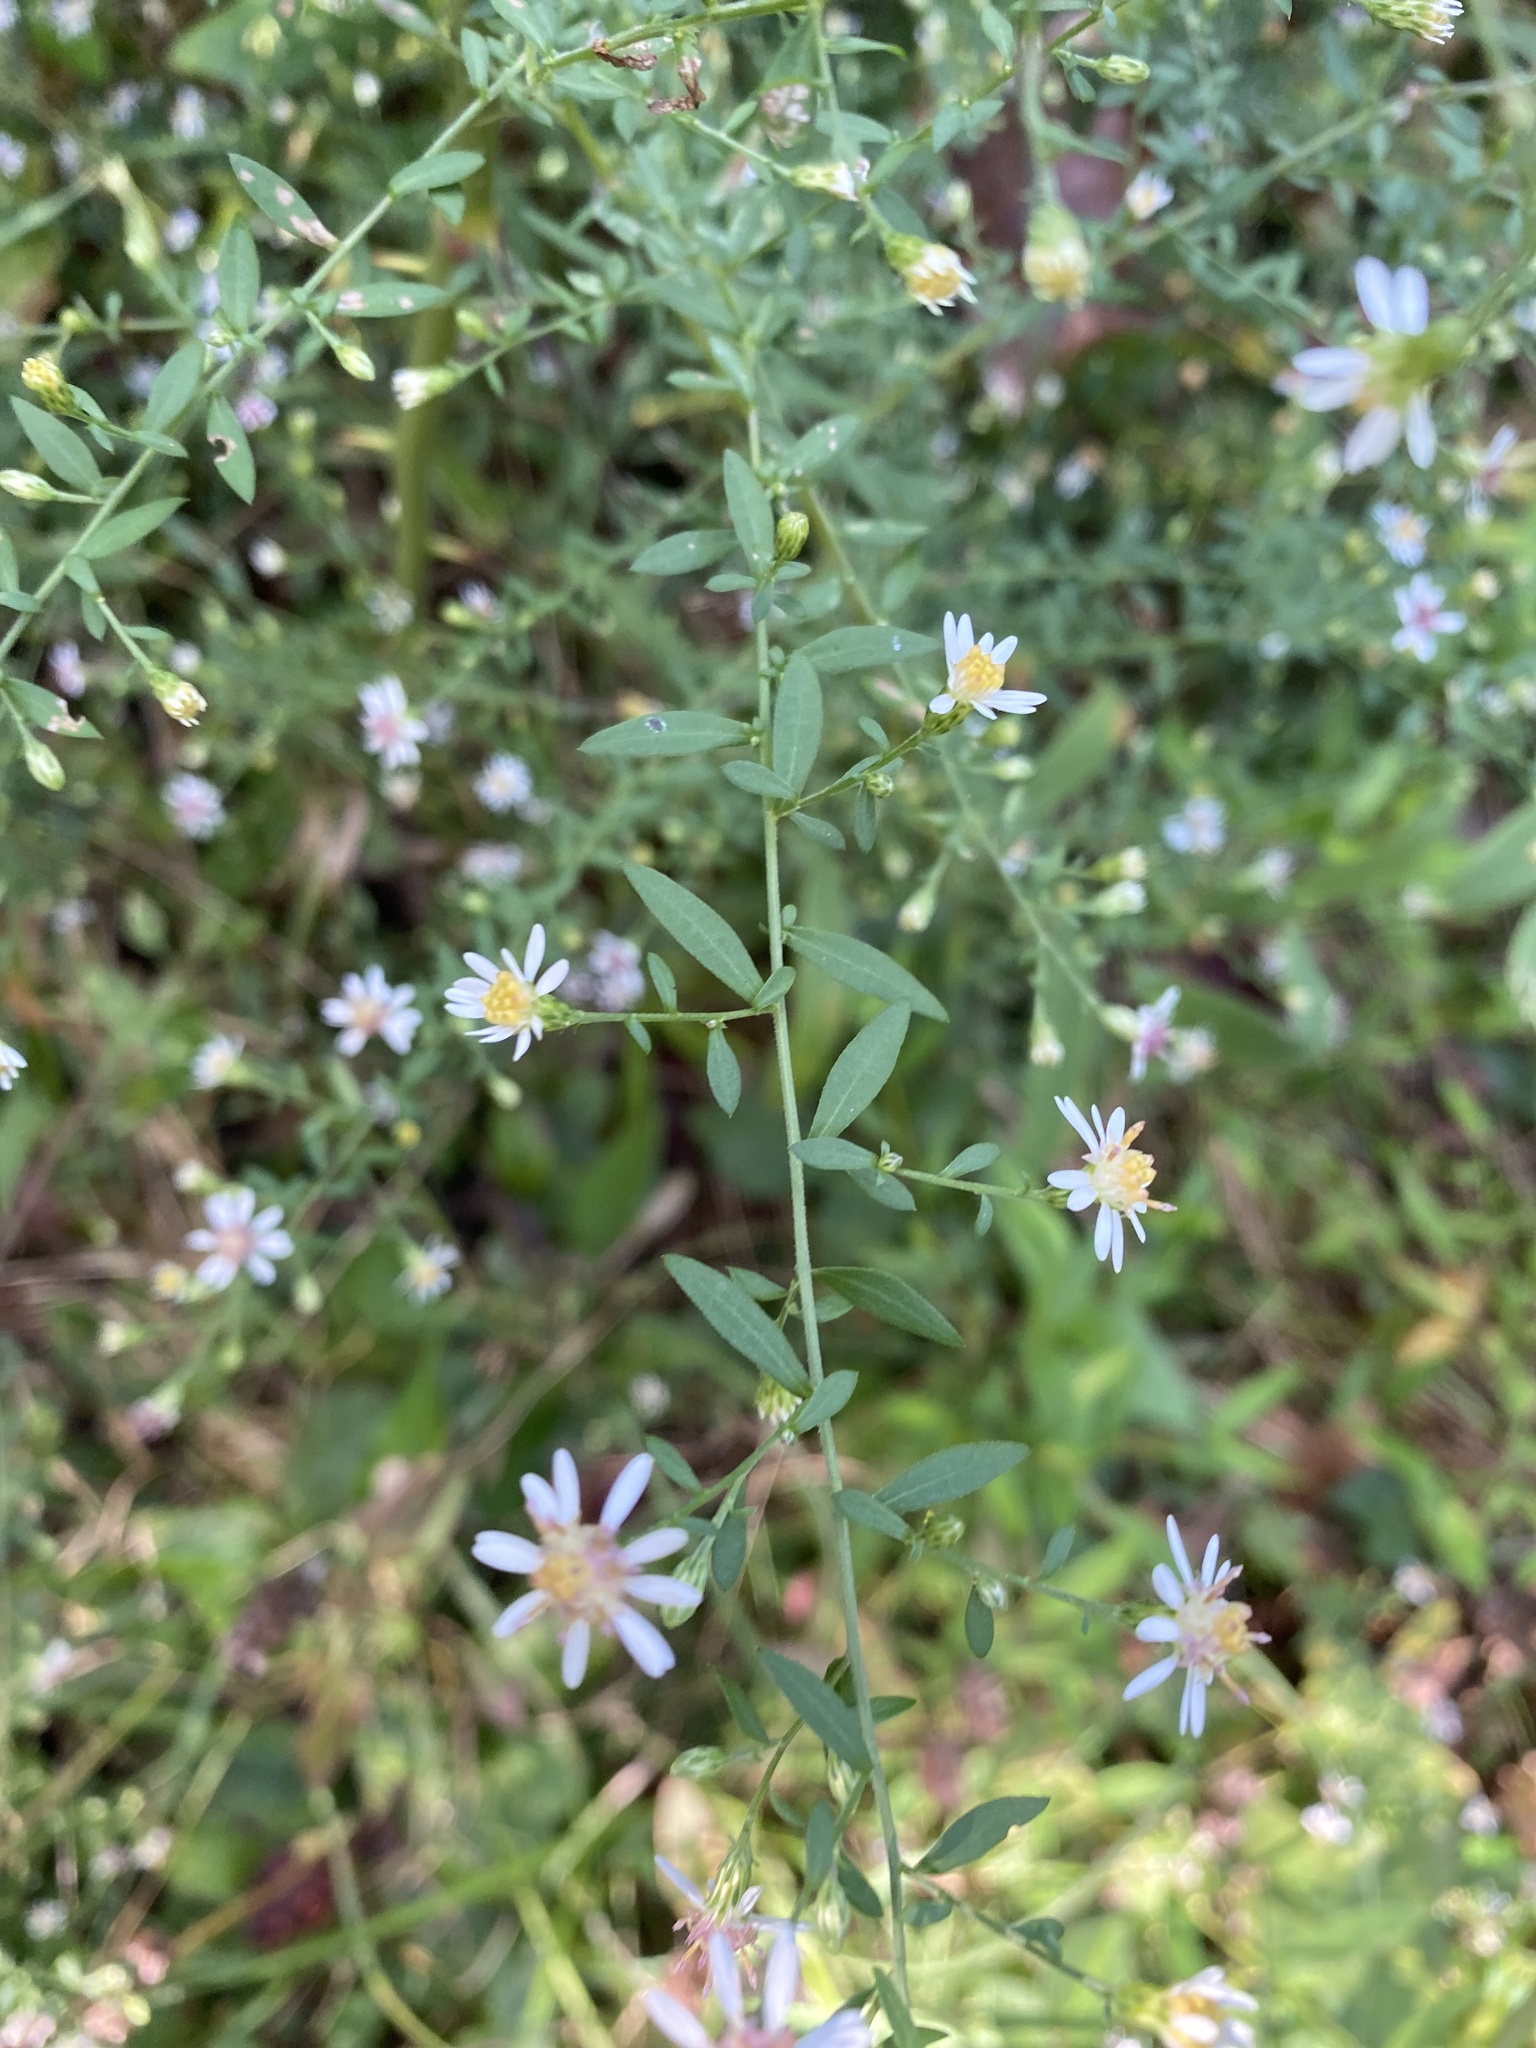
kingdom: Plantae
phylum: Tracheophyta
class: Magnoliopsida
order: Asterales
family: Asteraceae
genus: Symphyotrichum
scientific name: Symphyotrichum lateriflorum
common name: Calico aster
